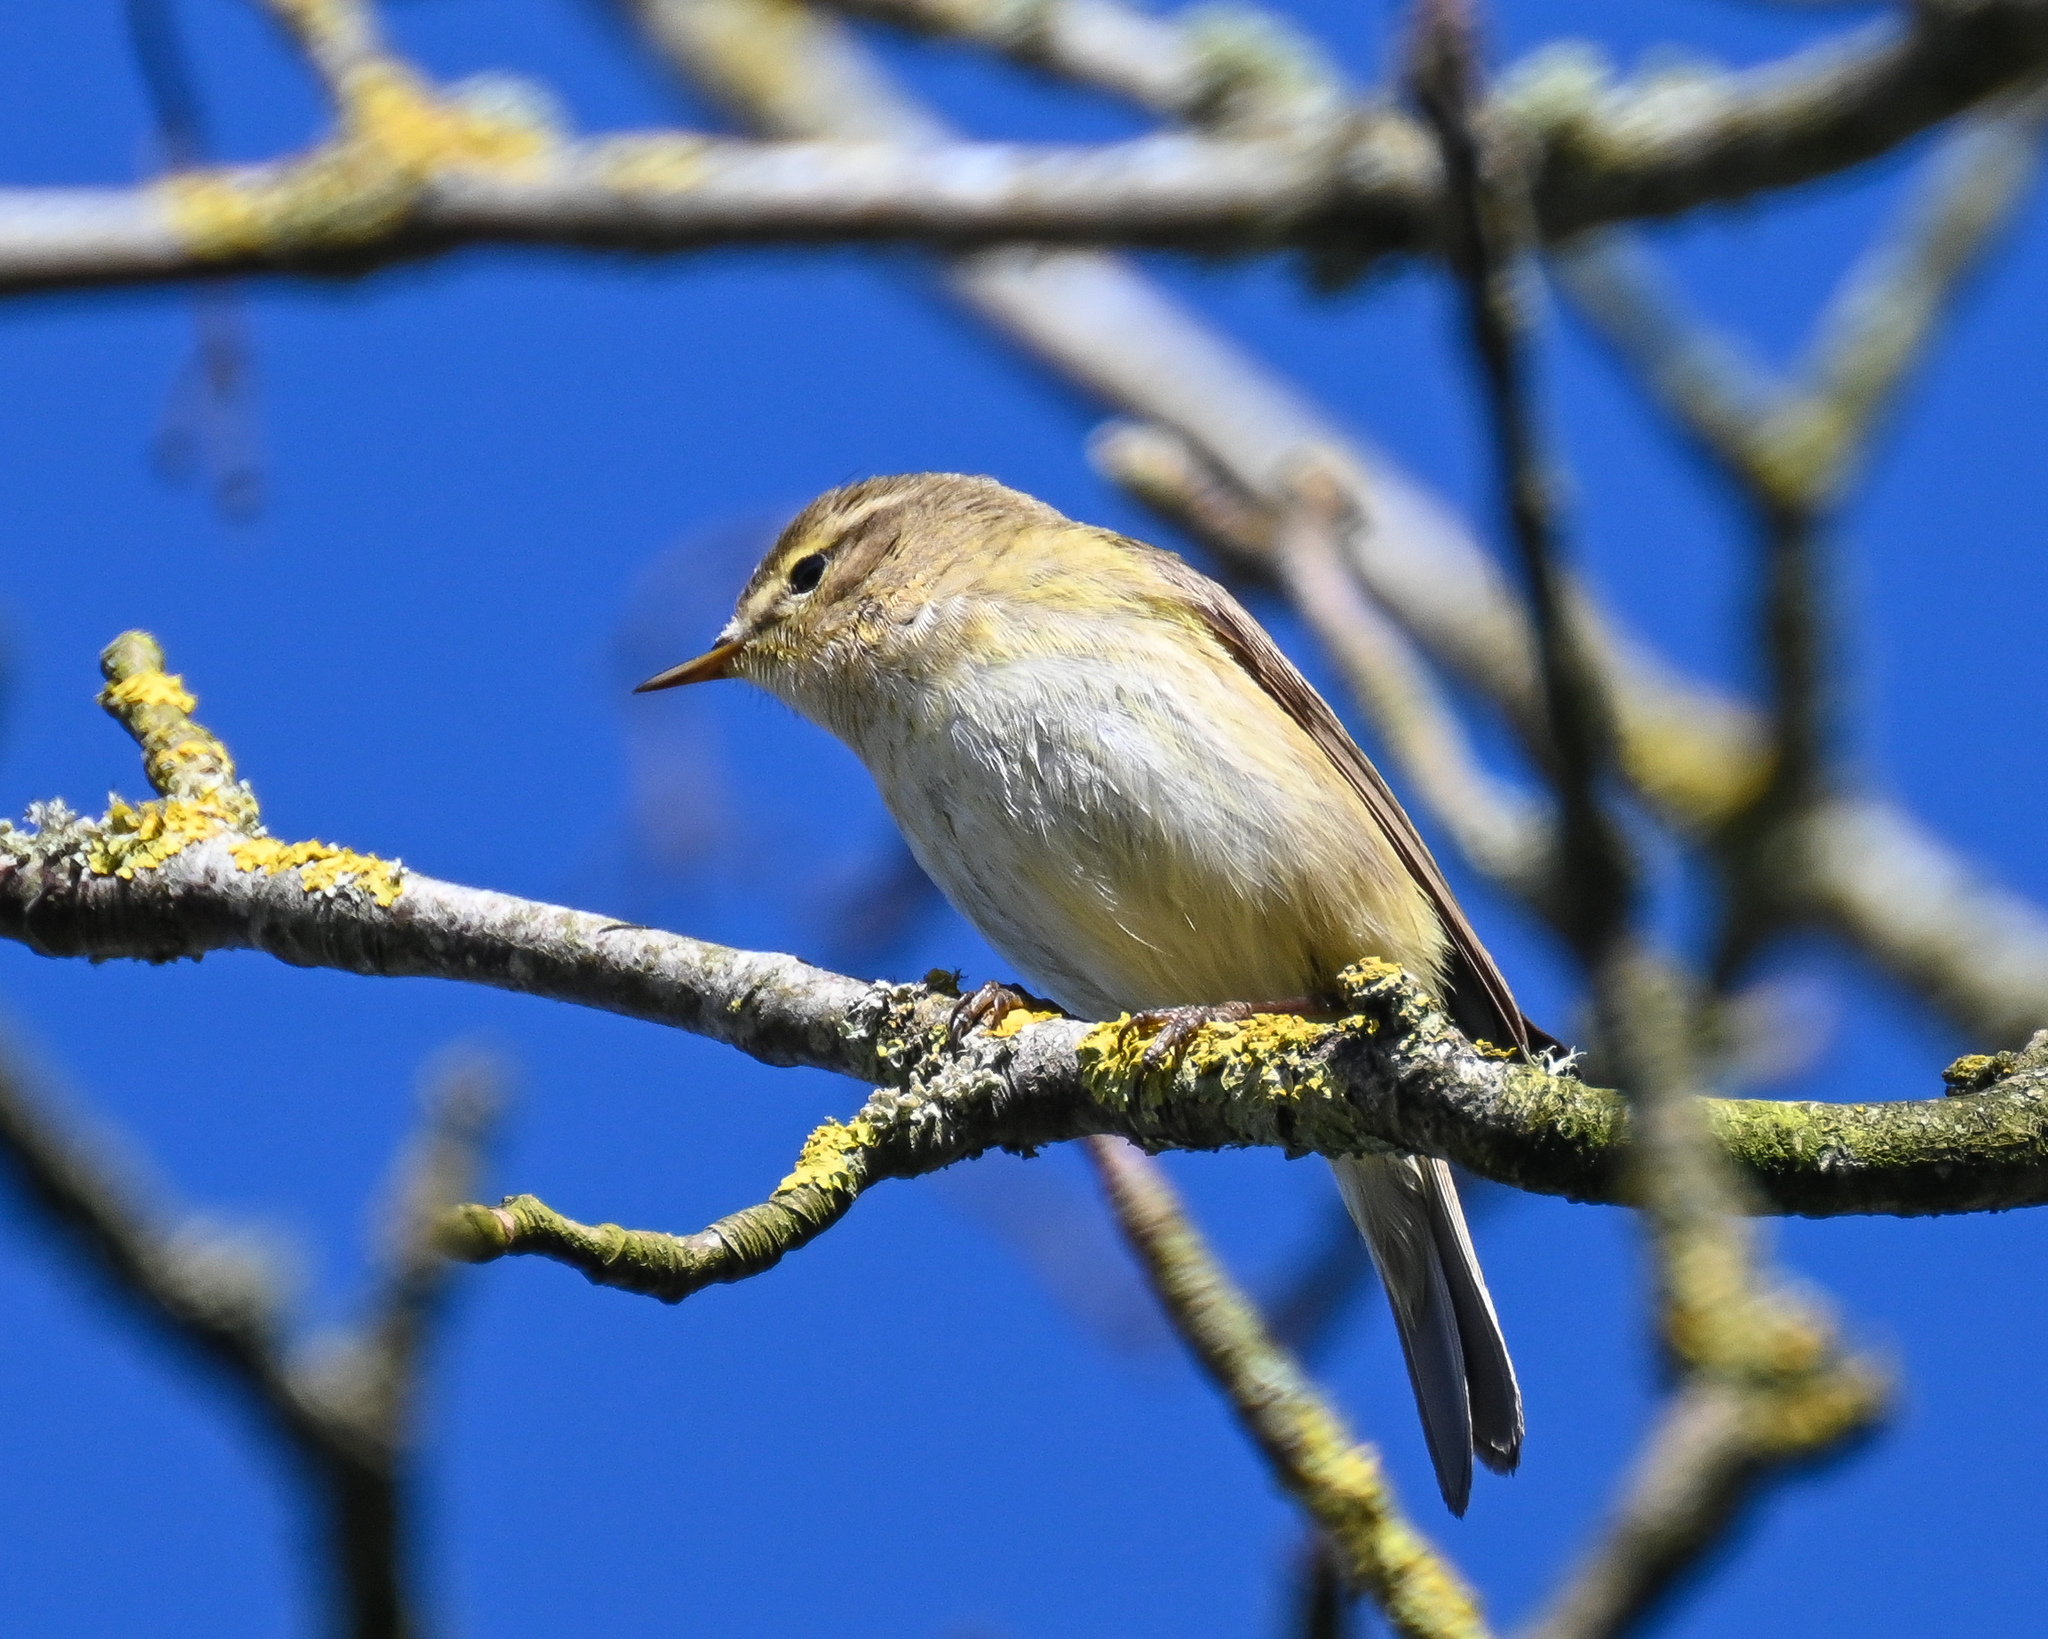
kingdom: Animalia
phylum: Chordata
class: Aves
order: Passeriformes
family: Phylloscopidae
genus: Phylloscopus
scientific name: Phylloscopus collybita
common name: Common chiffchaff
